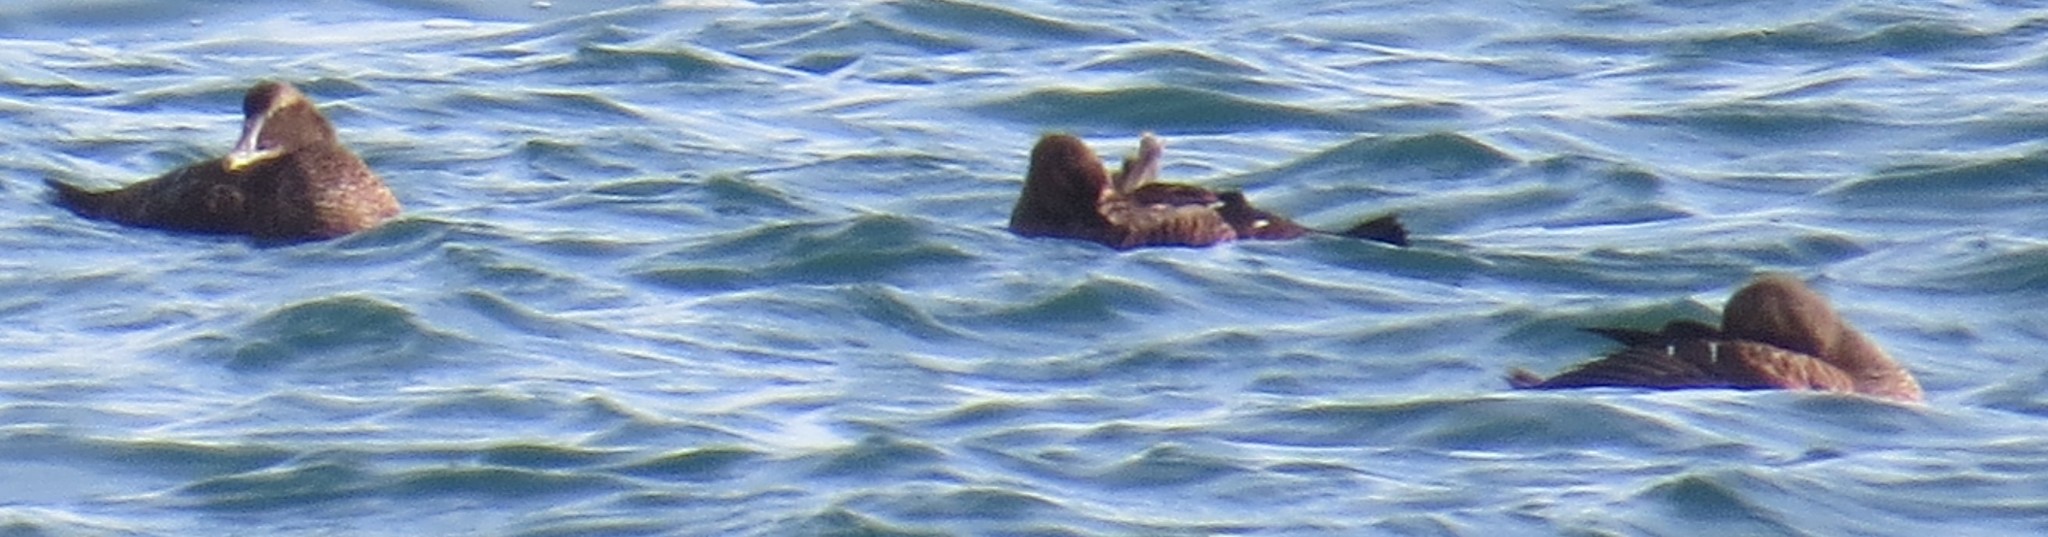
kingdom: Animalia
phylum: Chordata
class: Aves
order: Anseriformes
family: Anatidae
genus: Somateria
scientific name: Somateria mollissima
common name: Common eider
